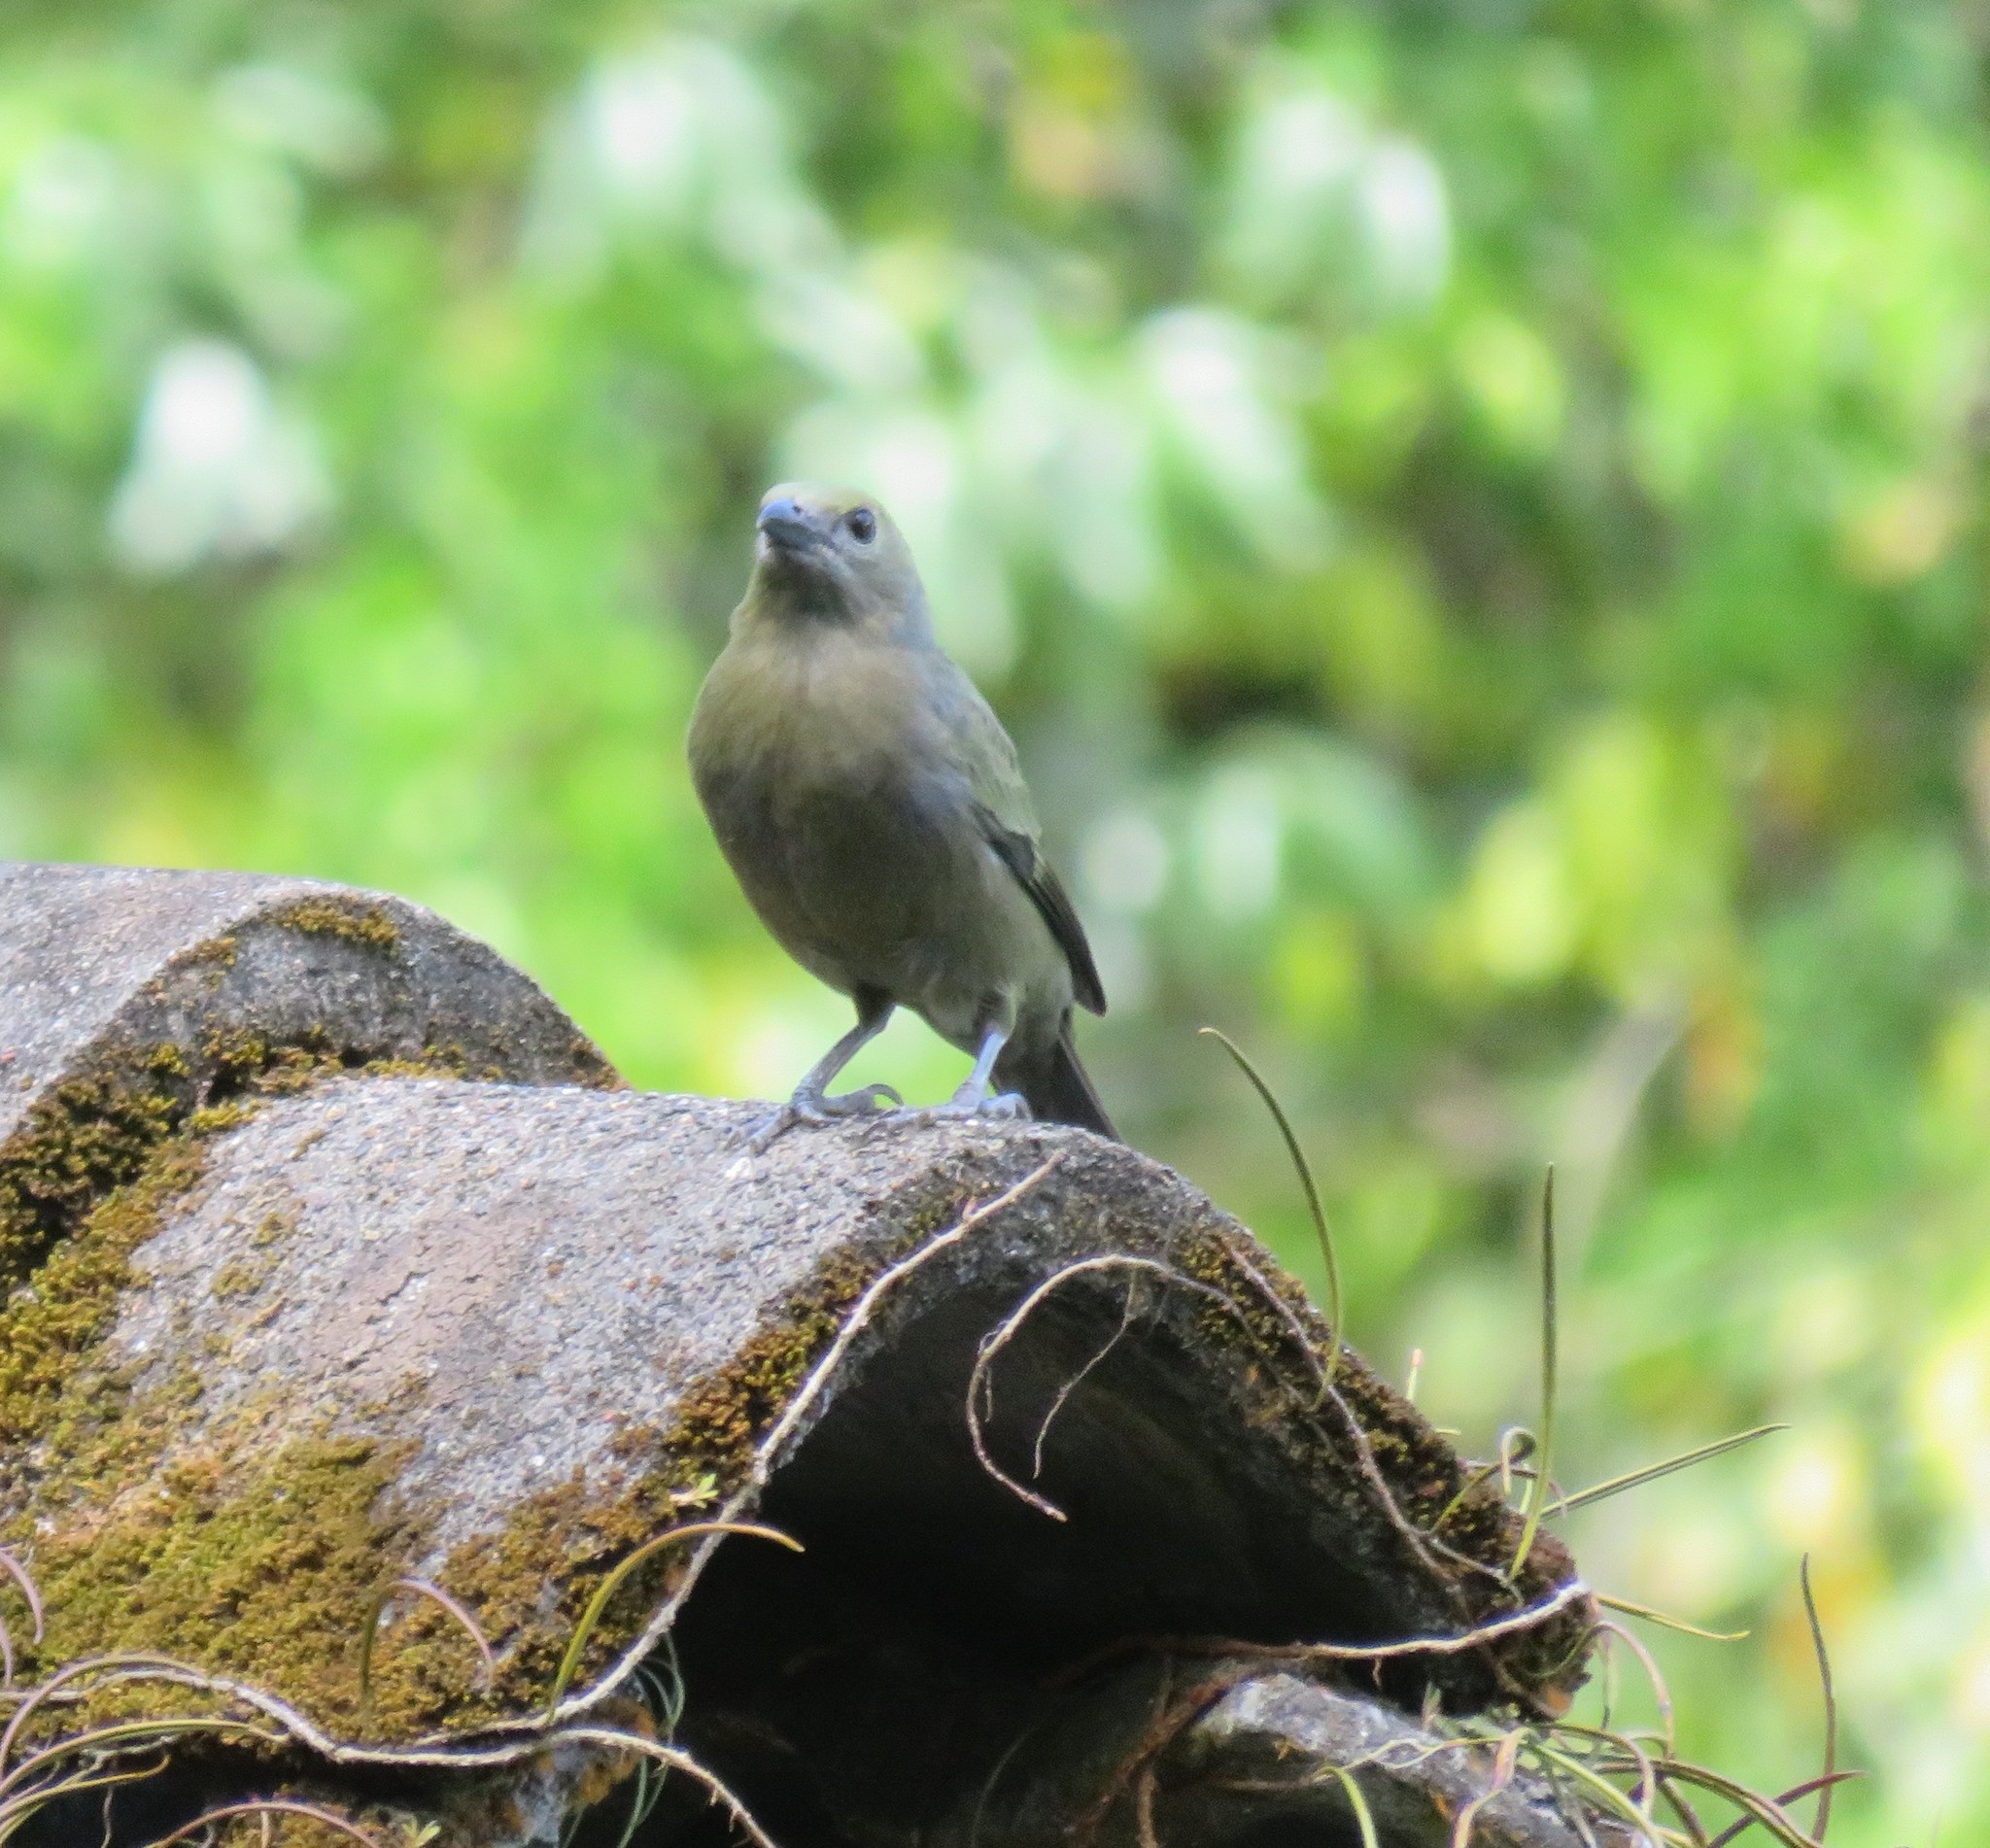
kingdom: Animalia
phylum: Chordata
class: Aves
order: Passeriformes
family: Thraupidae
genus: Thraupis
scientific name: Thraupis palmarum
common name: Palm tanager
